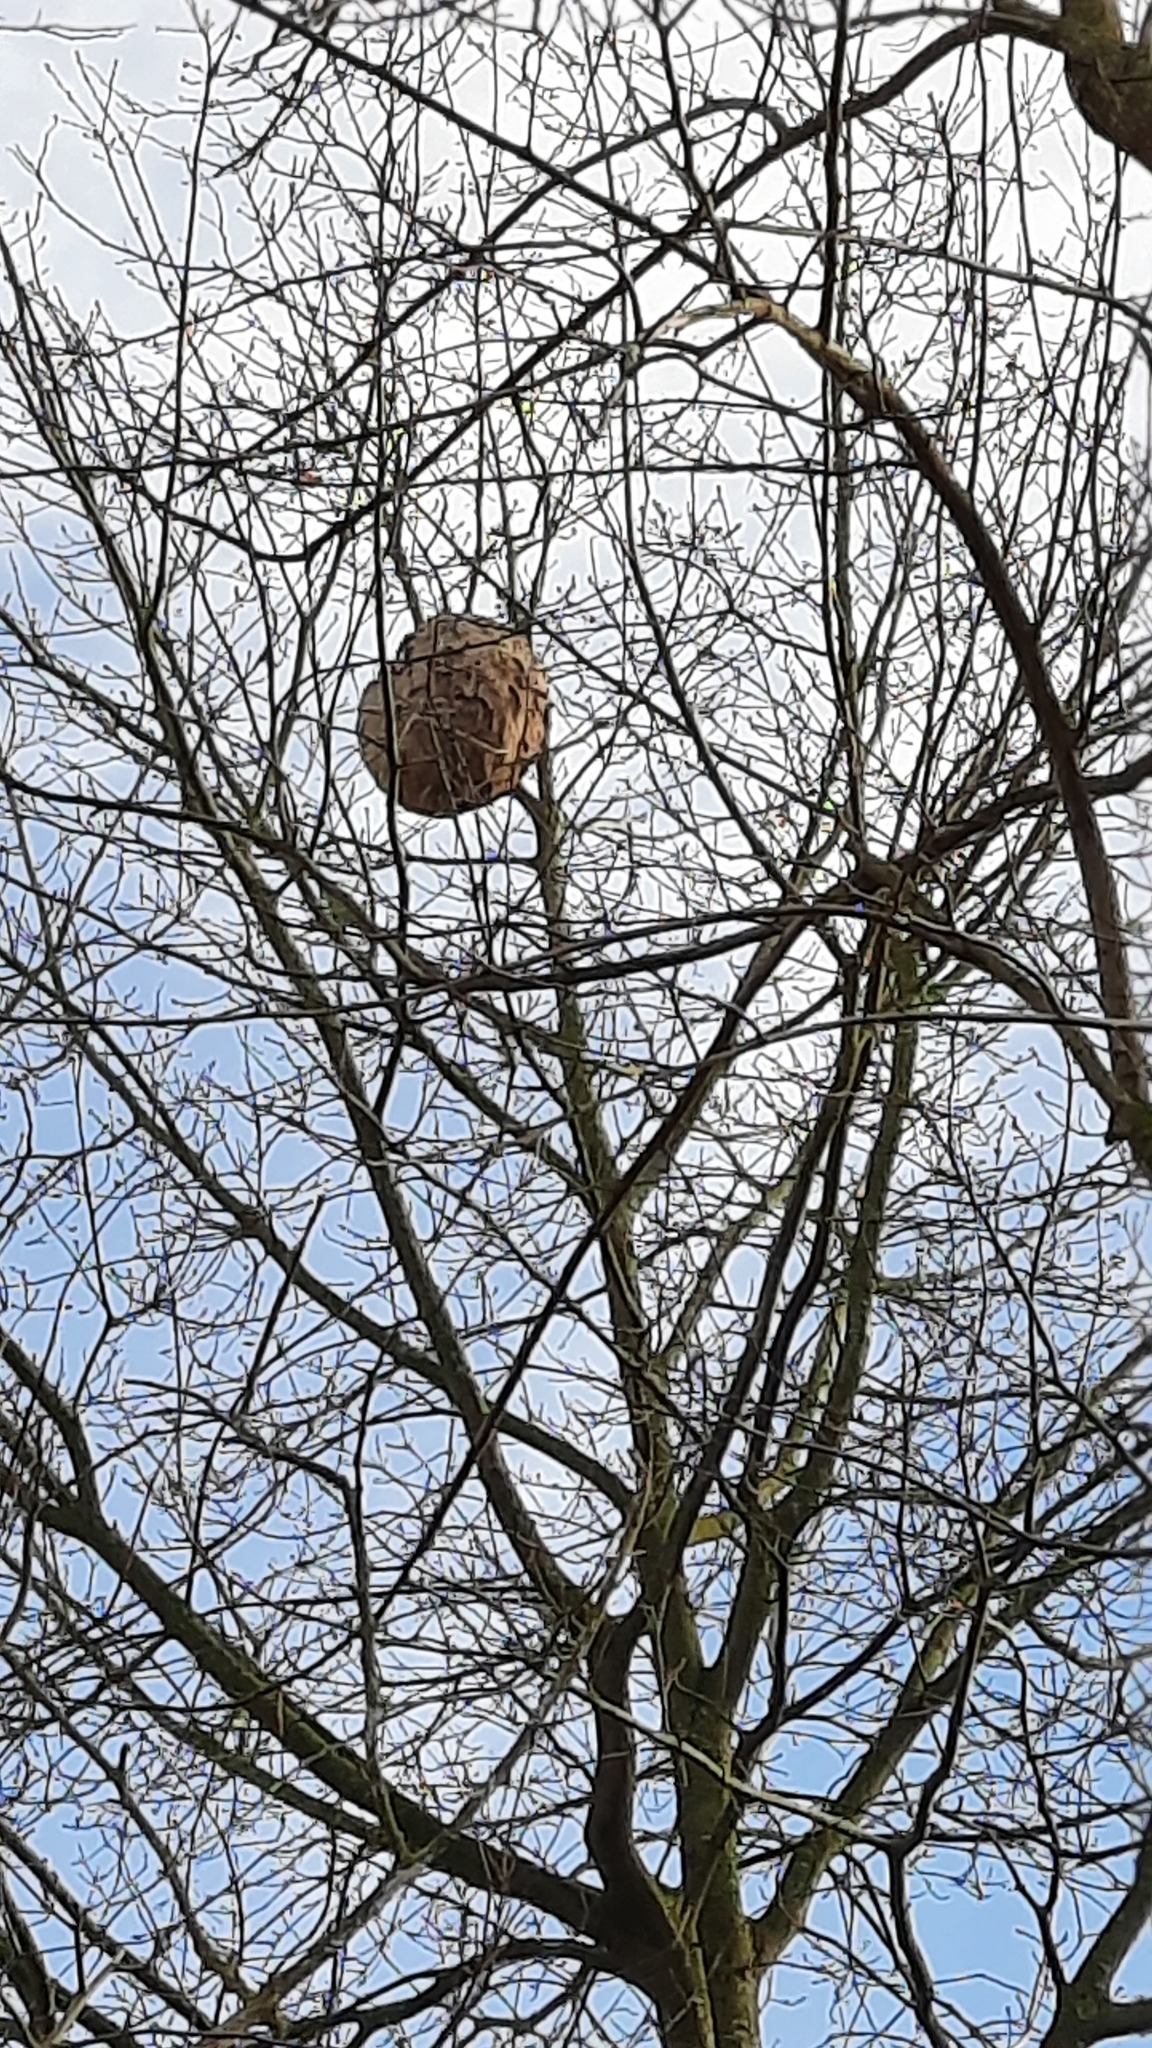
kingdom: Animalia
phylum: Arthropoda
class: Insecta
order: Hymenoptera
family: Vespidae
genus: Vespa
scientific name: Vespa velutina
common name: Asian hornet
